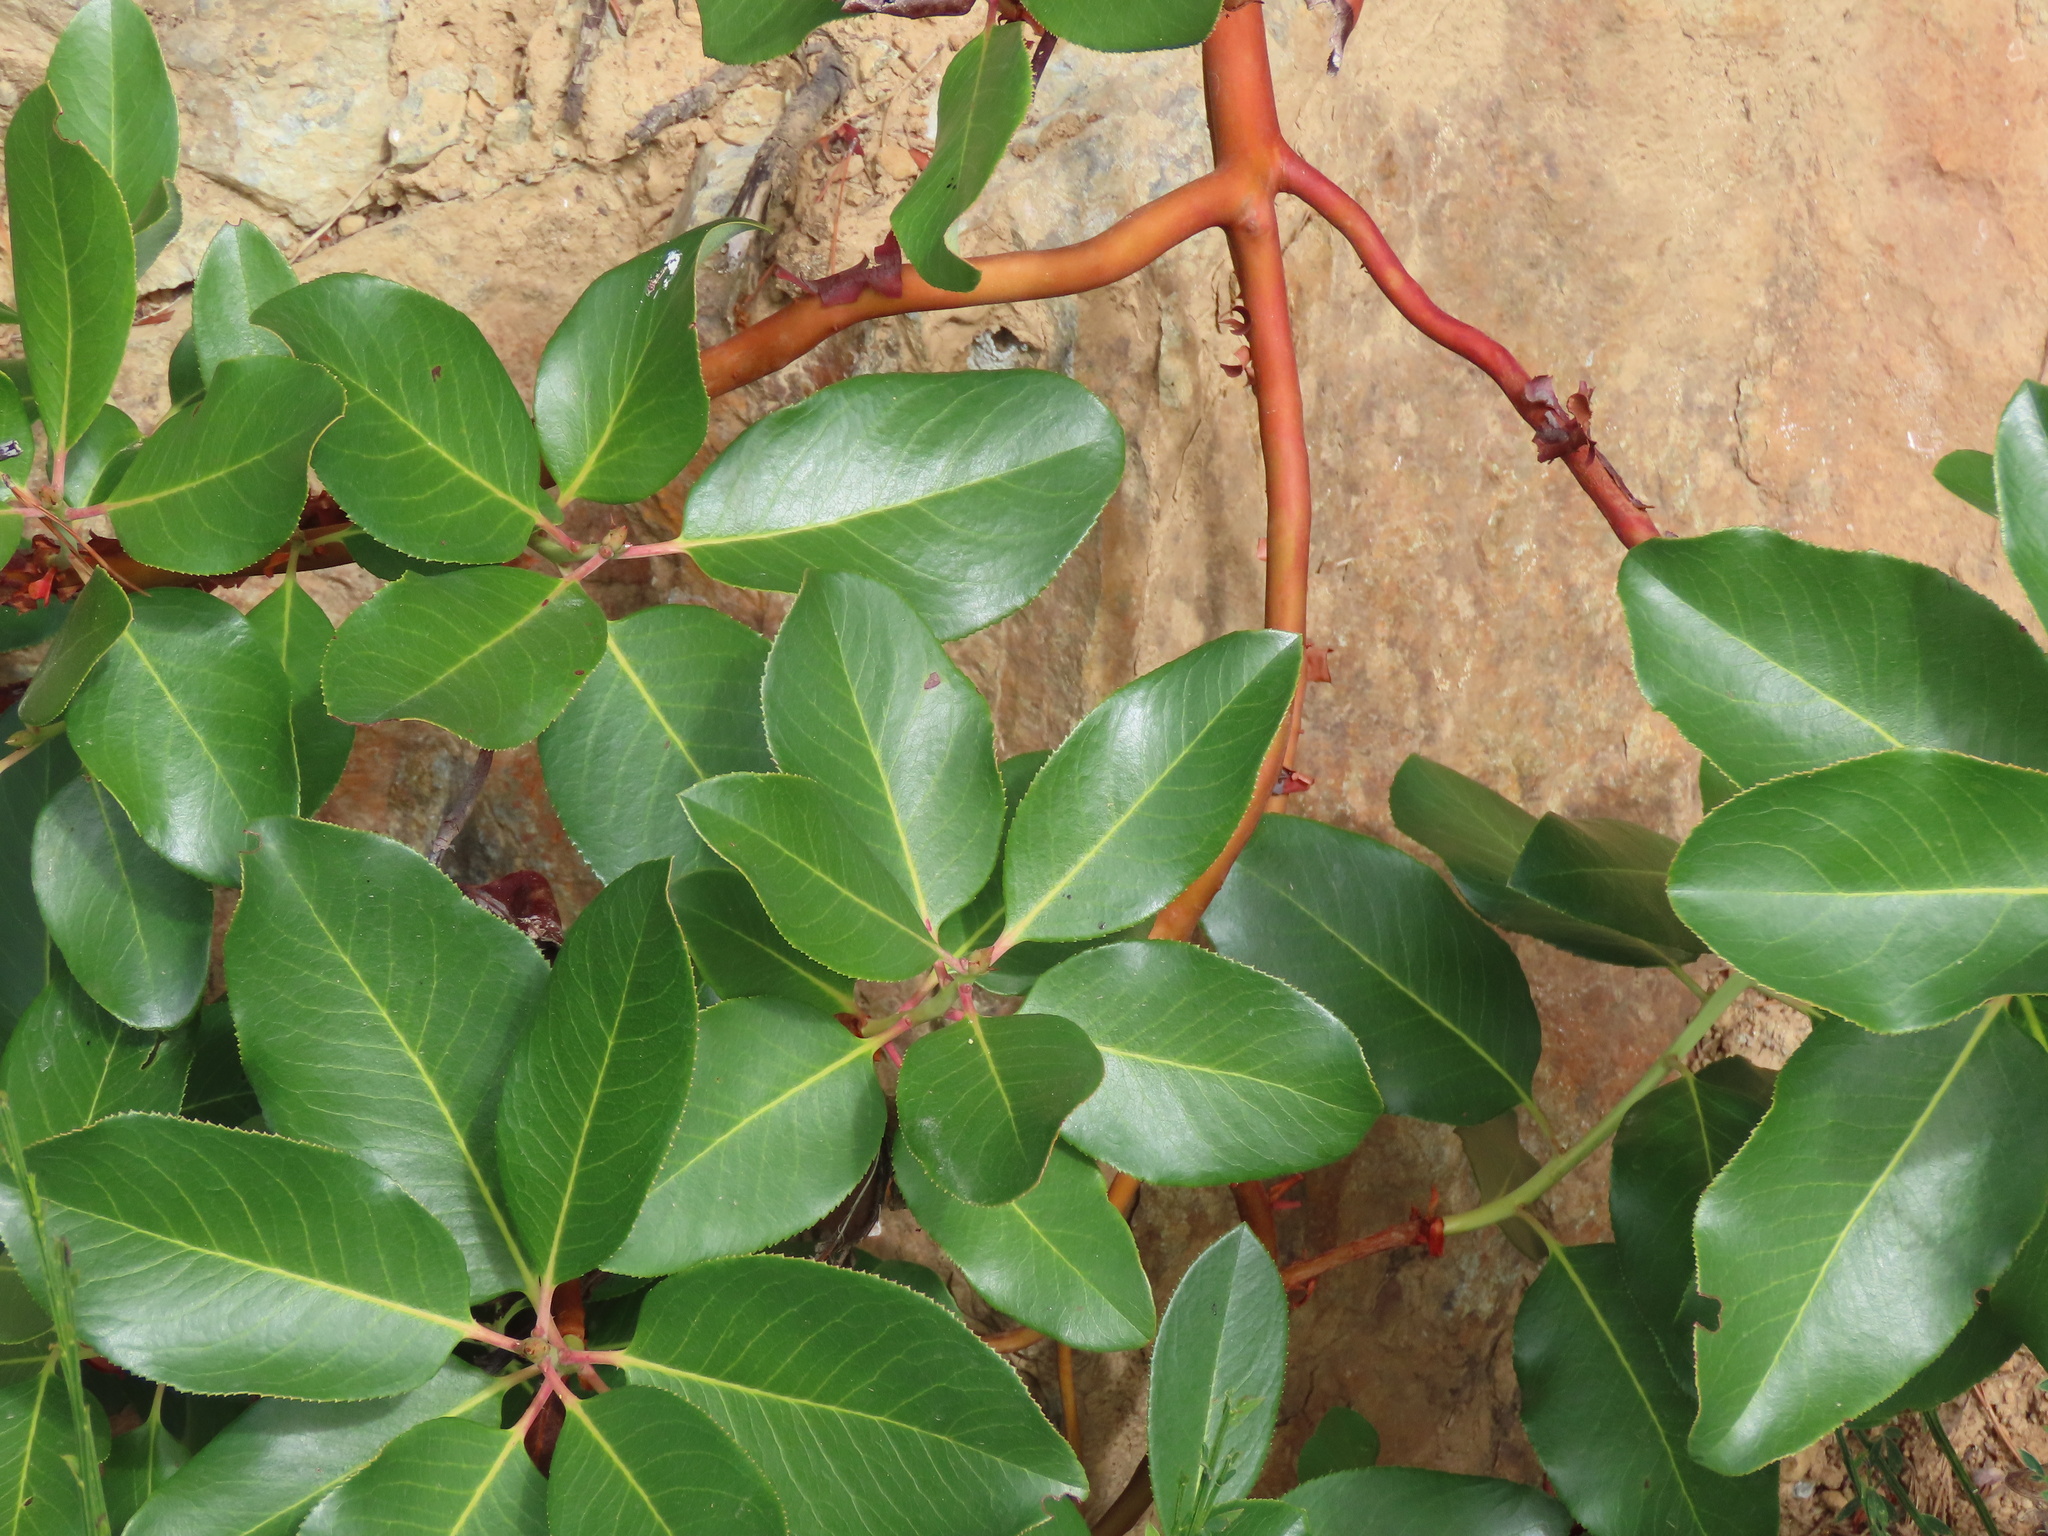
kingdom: Plantae
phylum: Tracheophyta
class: Magnoliopsida
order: Ericales
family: Ericaceae
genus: Arbutus
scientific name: Arbutus menziesii
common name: Pacific madrone
